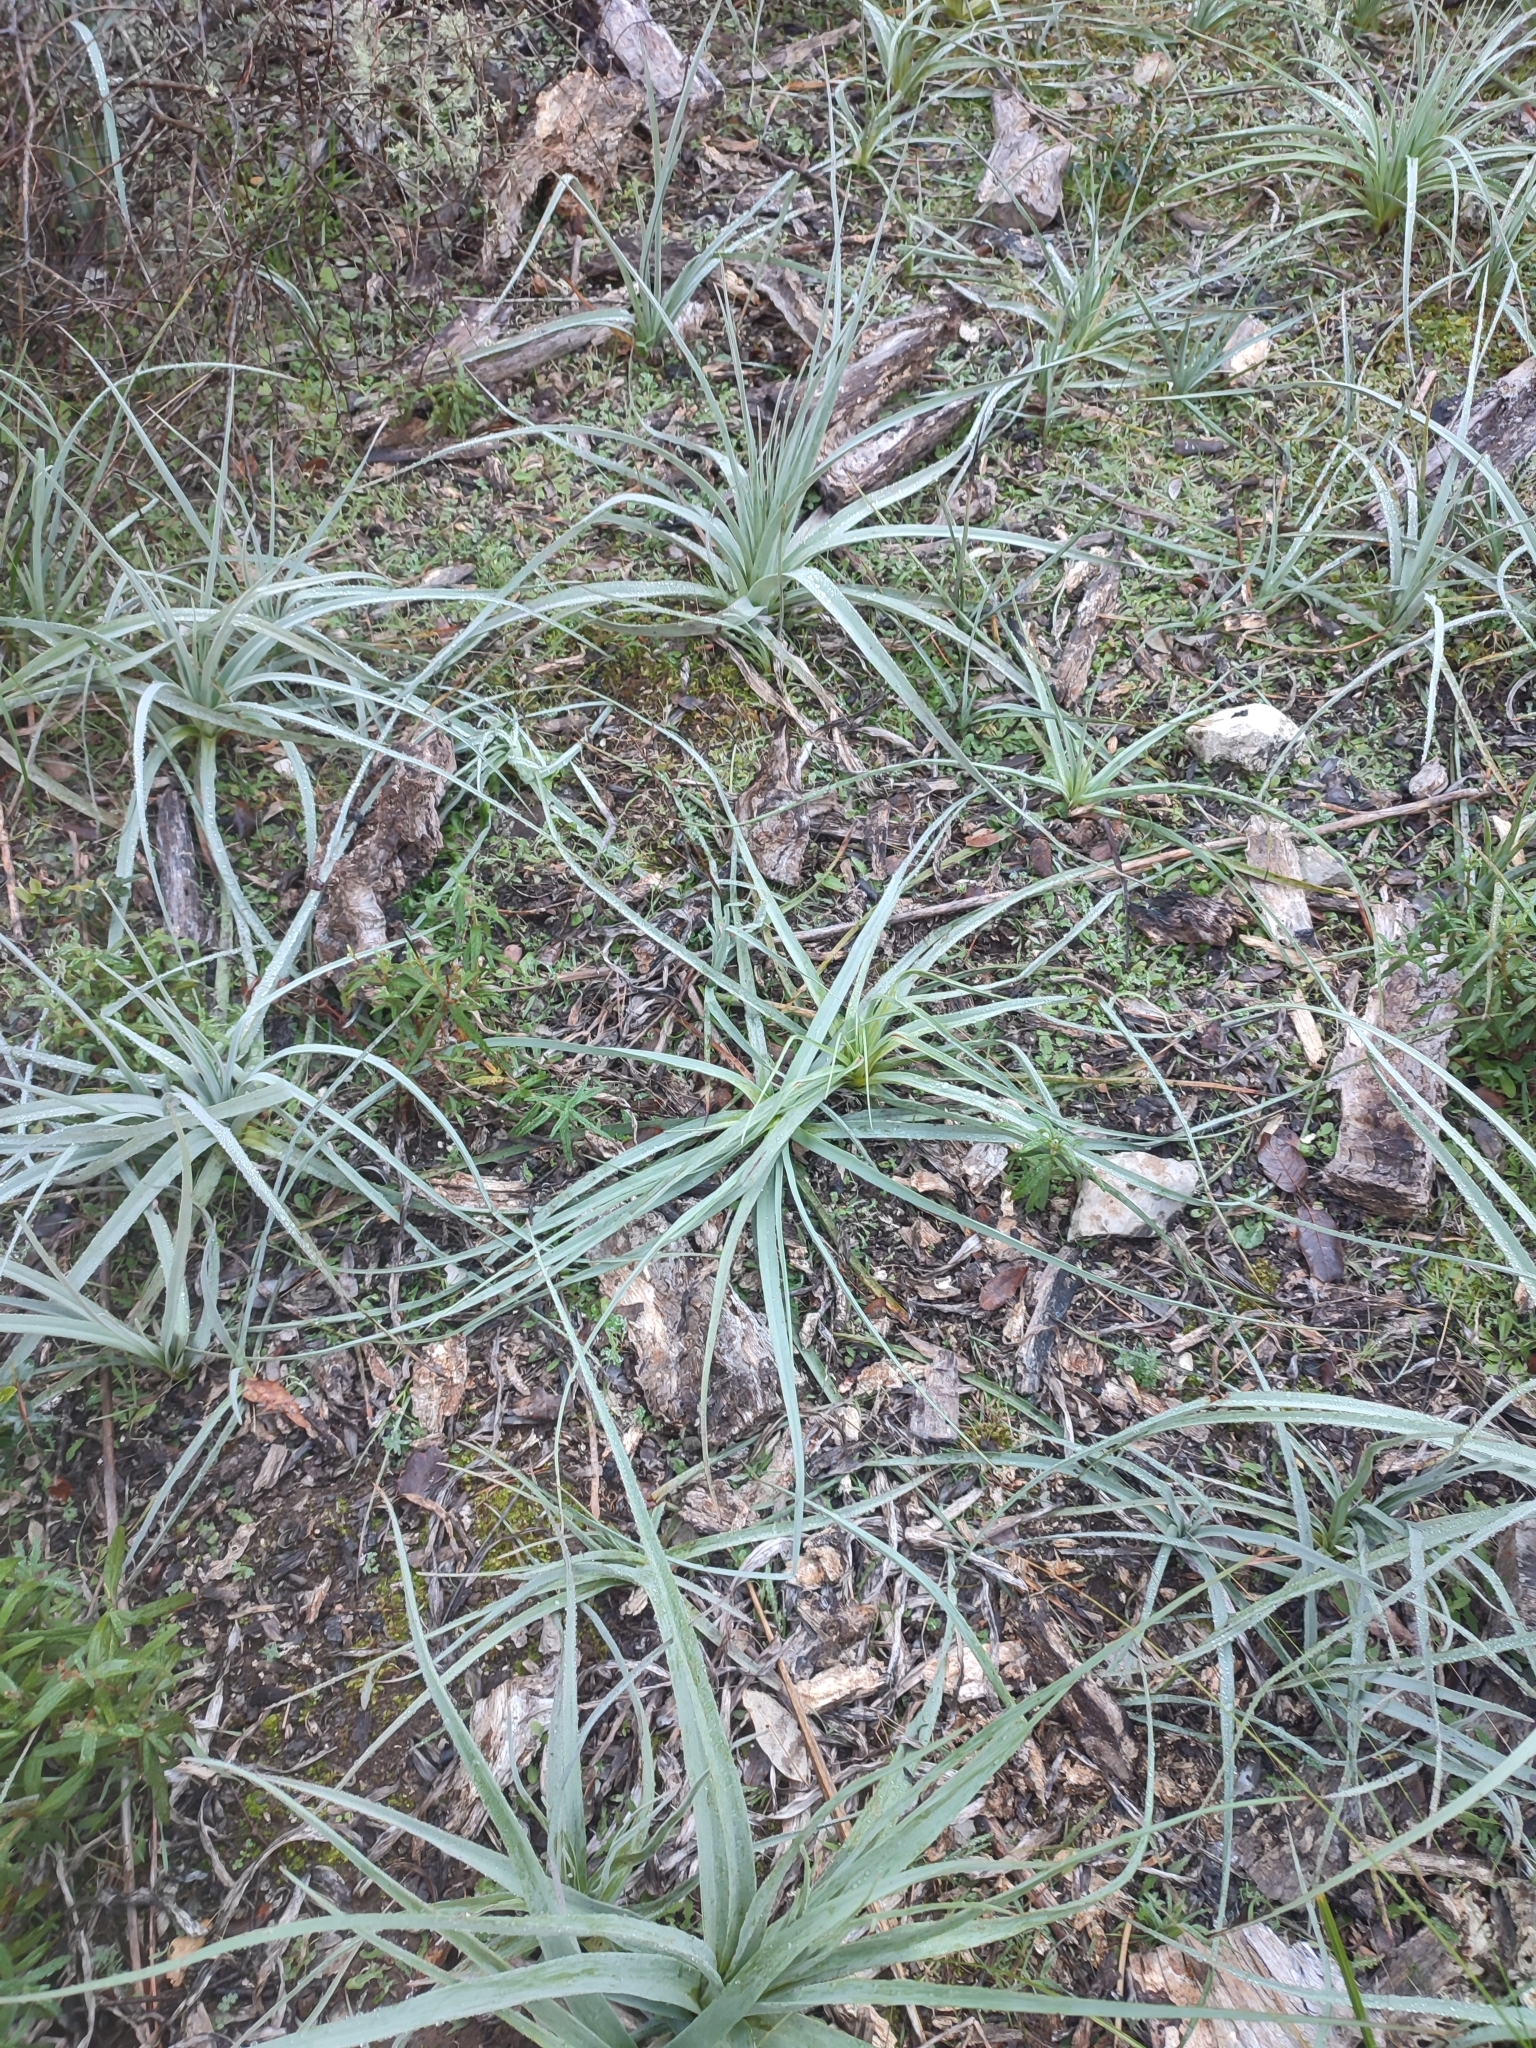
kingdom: Plantae
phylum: Tracheophyta
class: Liliopsida
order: Asparagales
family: Asphodelaceae
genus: Asphodelus
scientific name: Asphodelus ramosus
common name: Silverrod
